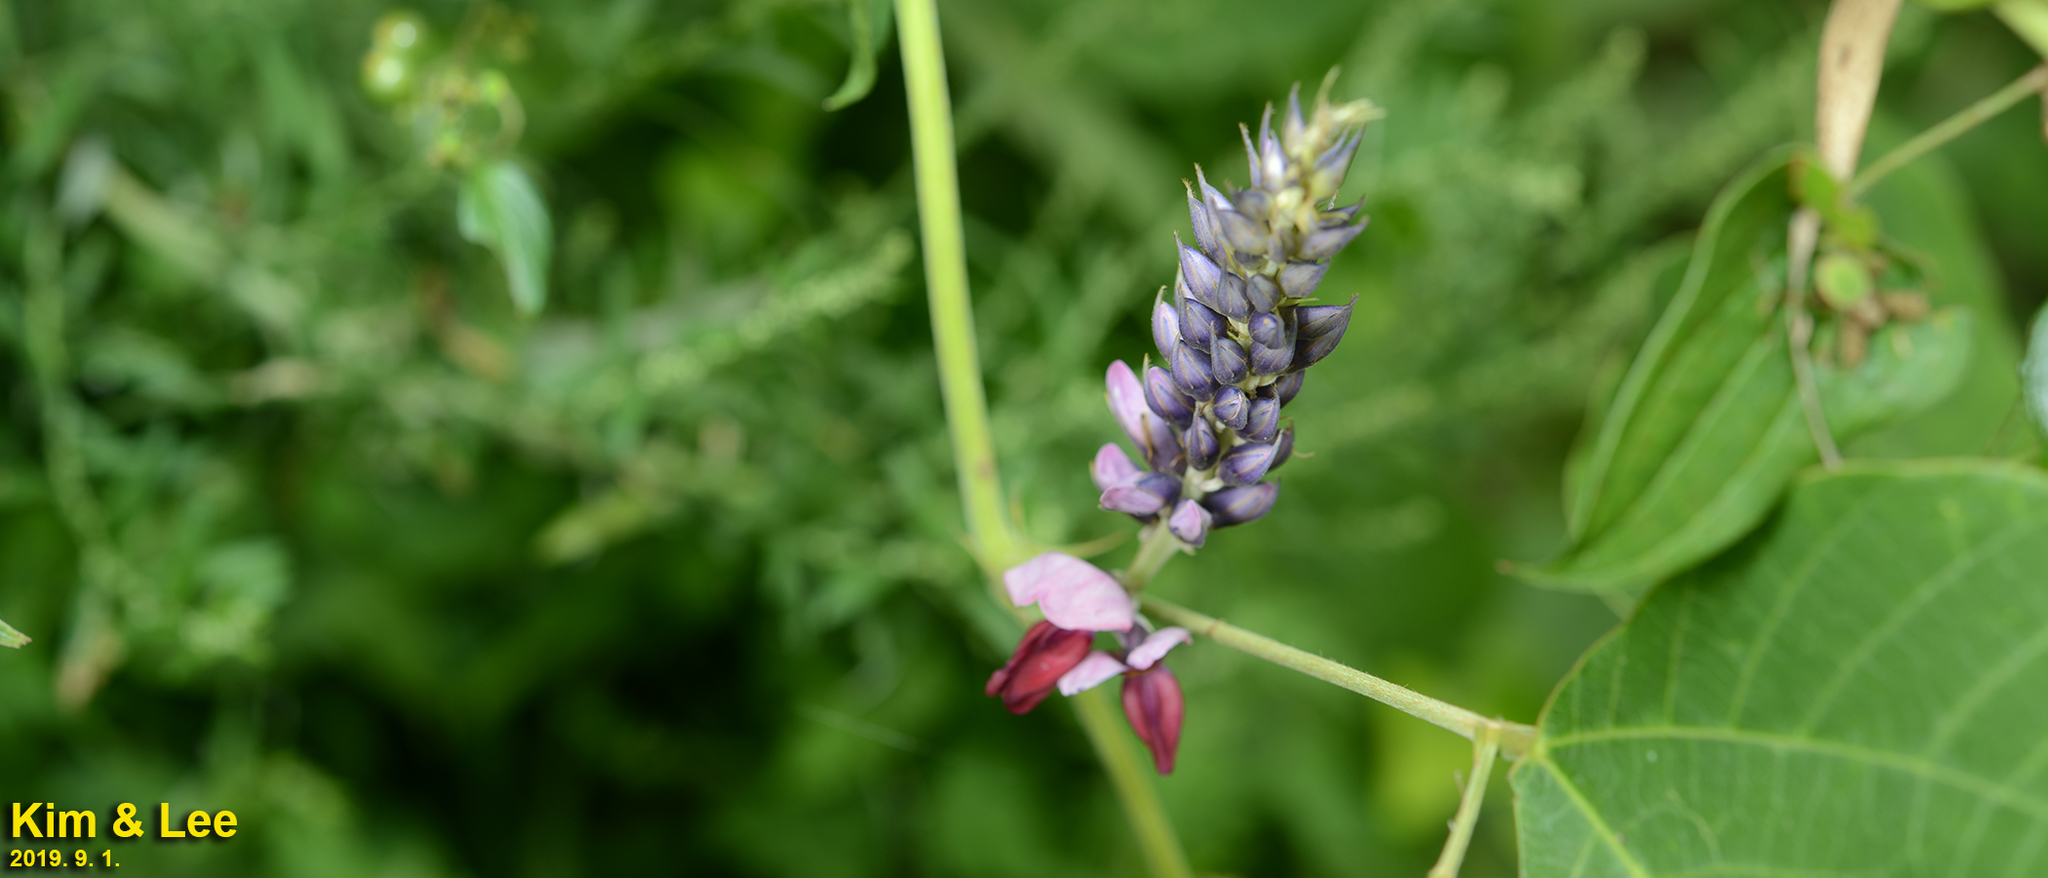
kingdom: Plantae
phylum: Tracheophyta
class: Magnoliopsida
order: Fabales
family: Fabaceae
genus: Pueraria
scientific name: Pueraria montana
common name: Kudzu
